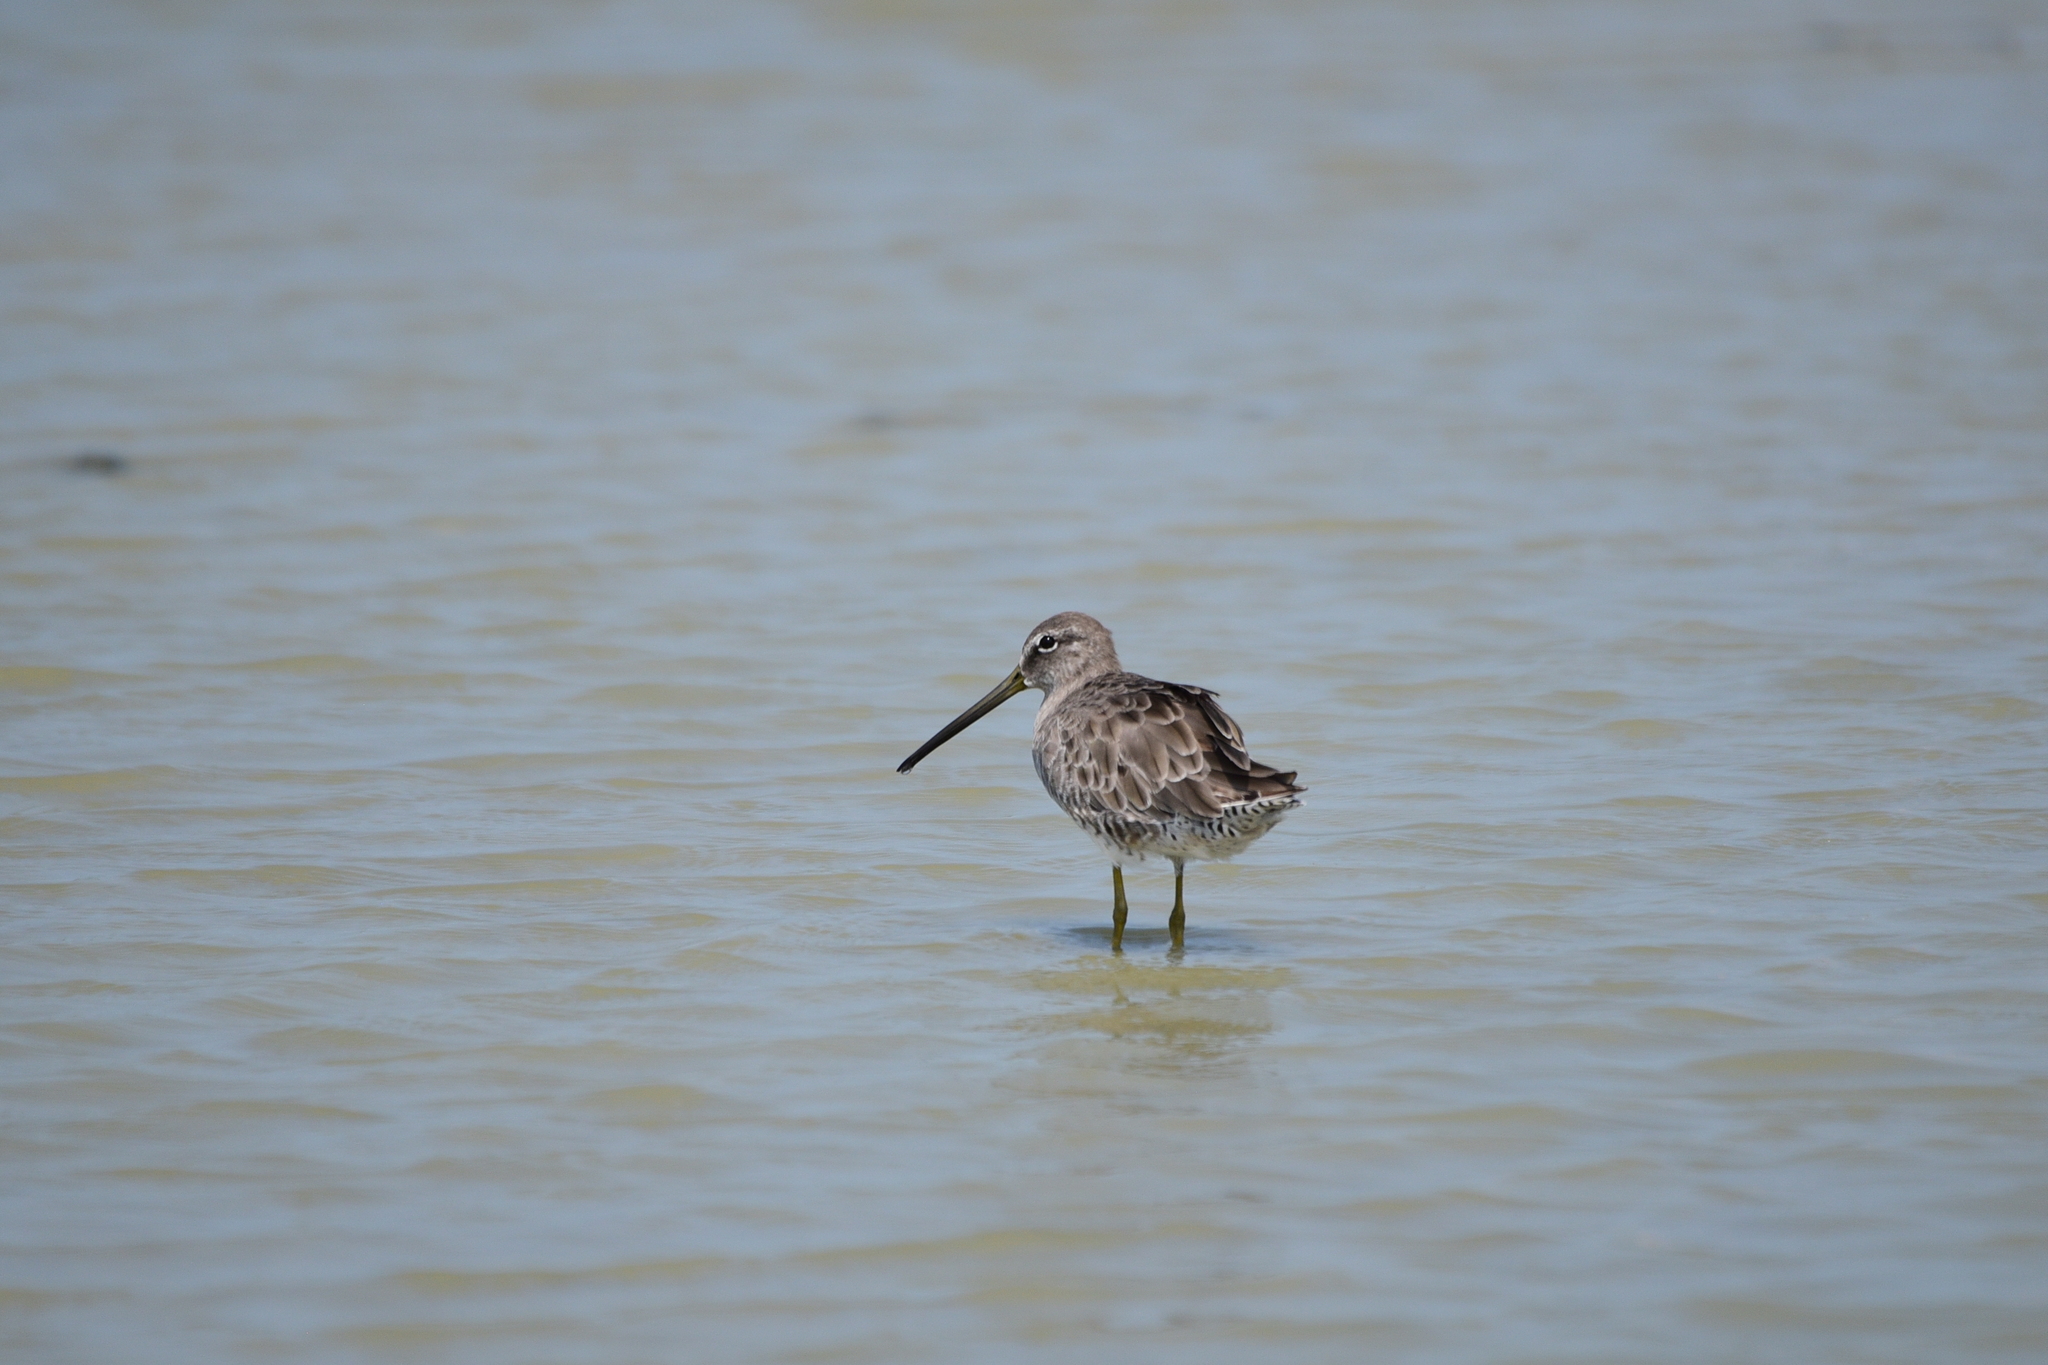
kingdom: Animalia
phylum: Chordata
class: Aves
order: Charadriiformes
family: Scolopacidae
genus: Limnodromus
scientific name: Limnodromus scolopaceus
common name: Long-billed dowitcher
